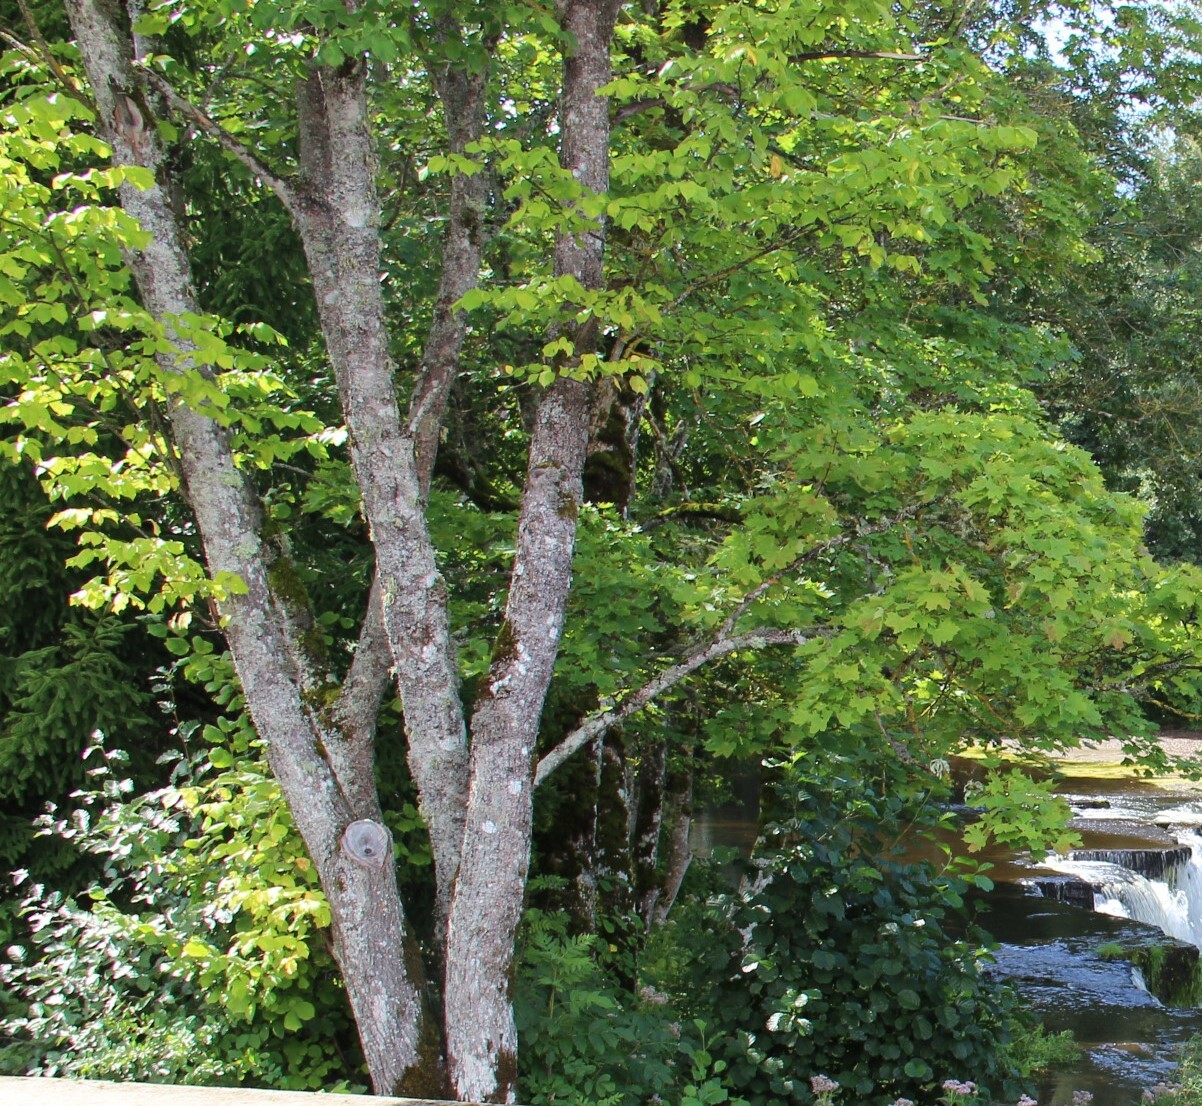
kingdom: Plantae
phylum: Tracheophyta
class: Magnoliopsida
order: Sapindales
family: Sapindaceae
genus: Acer
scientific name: Acer platanoides
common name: Norway maple
